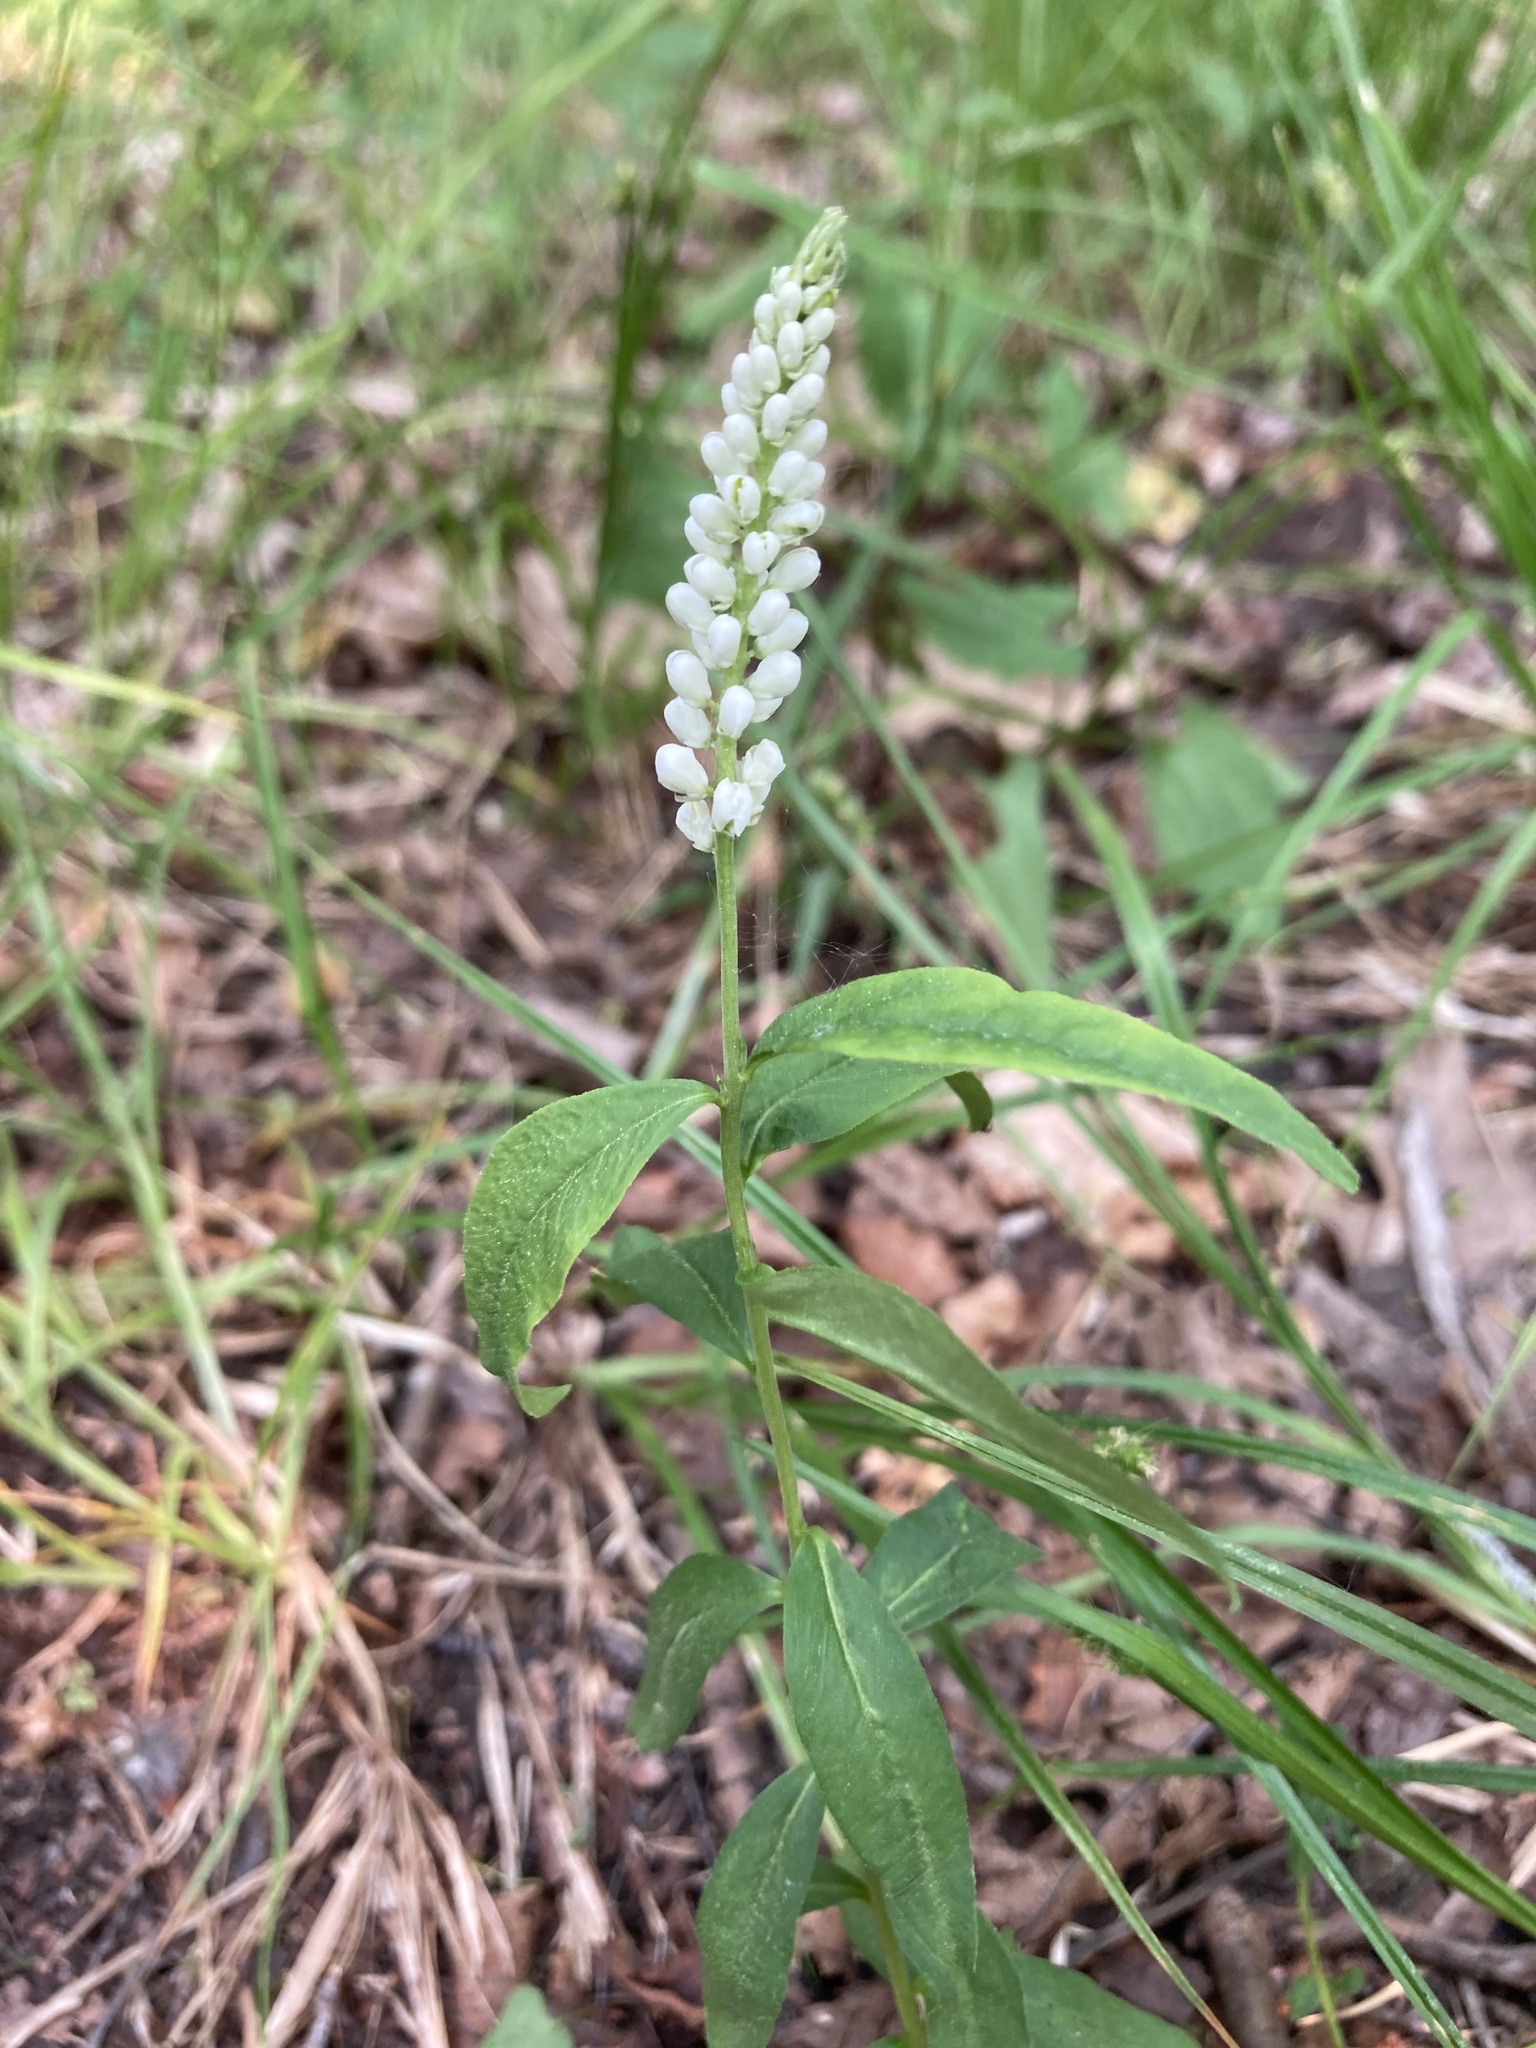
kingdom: Plantae
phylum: Tracheophyta
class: Magnoliopsida
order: Fabales
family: Polygalaceae
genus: Polygala
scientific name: Polygala senega
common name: Seneca snakeroot
